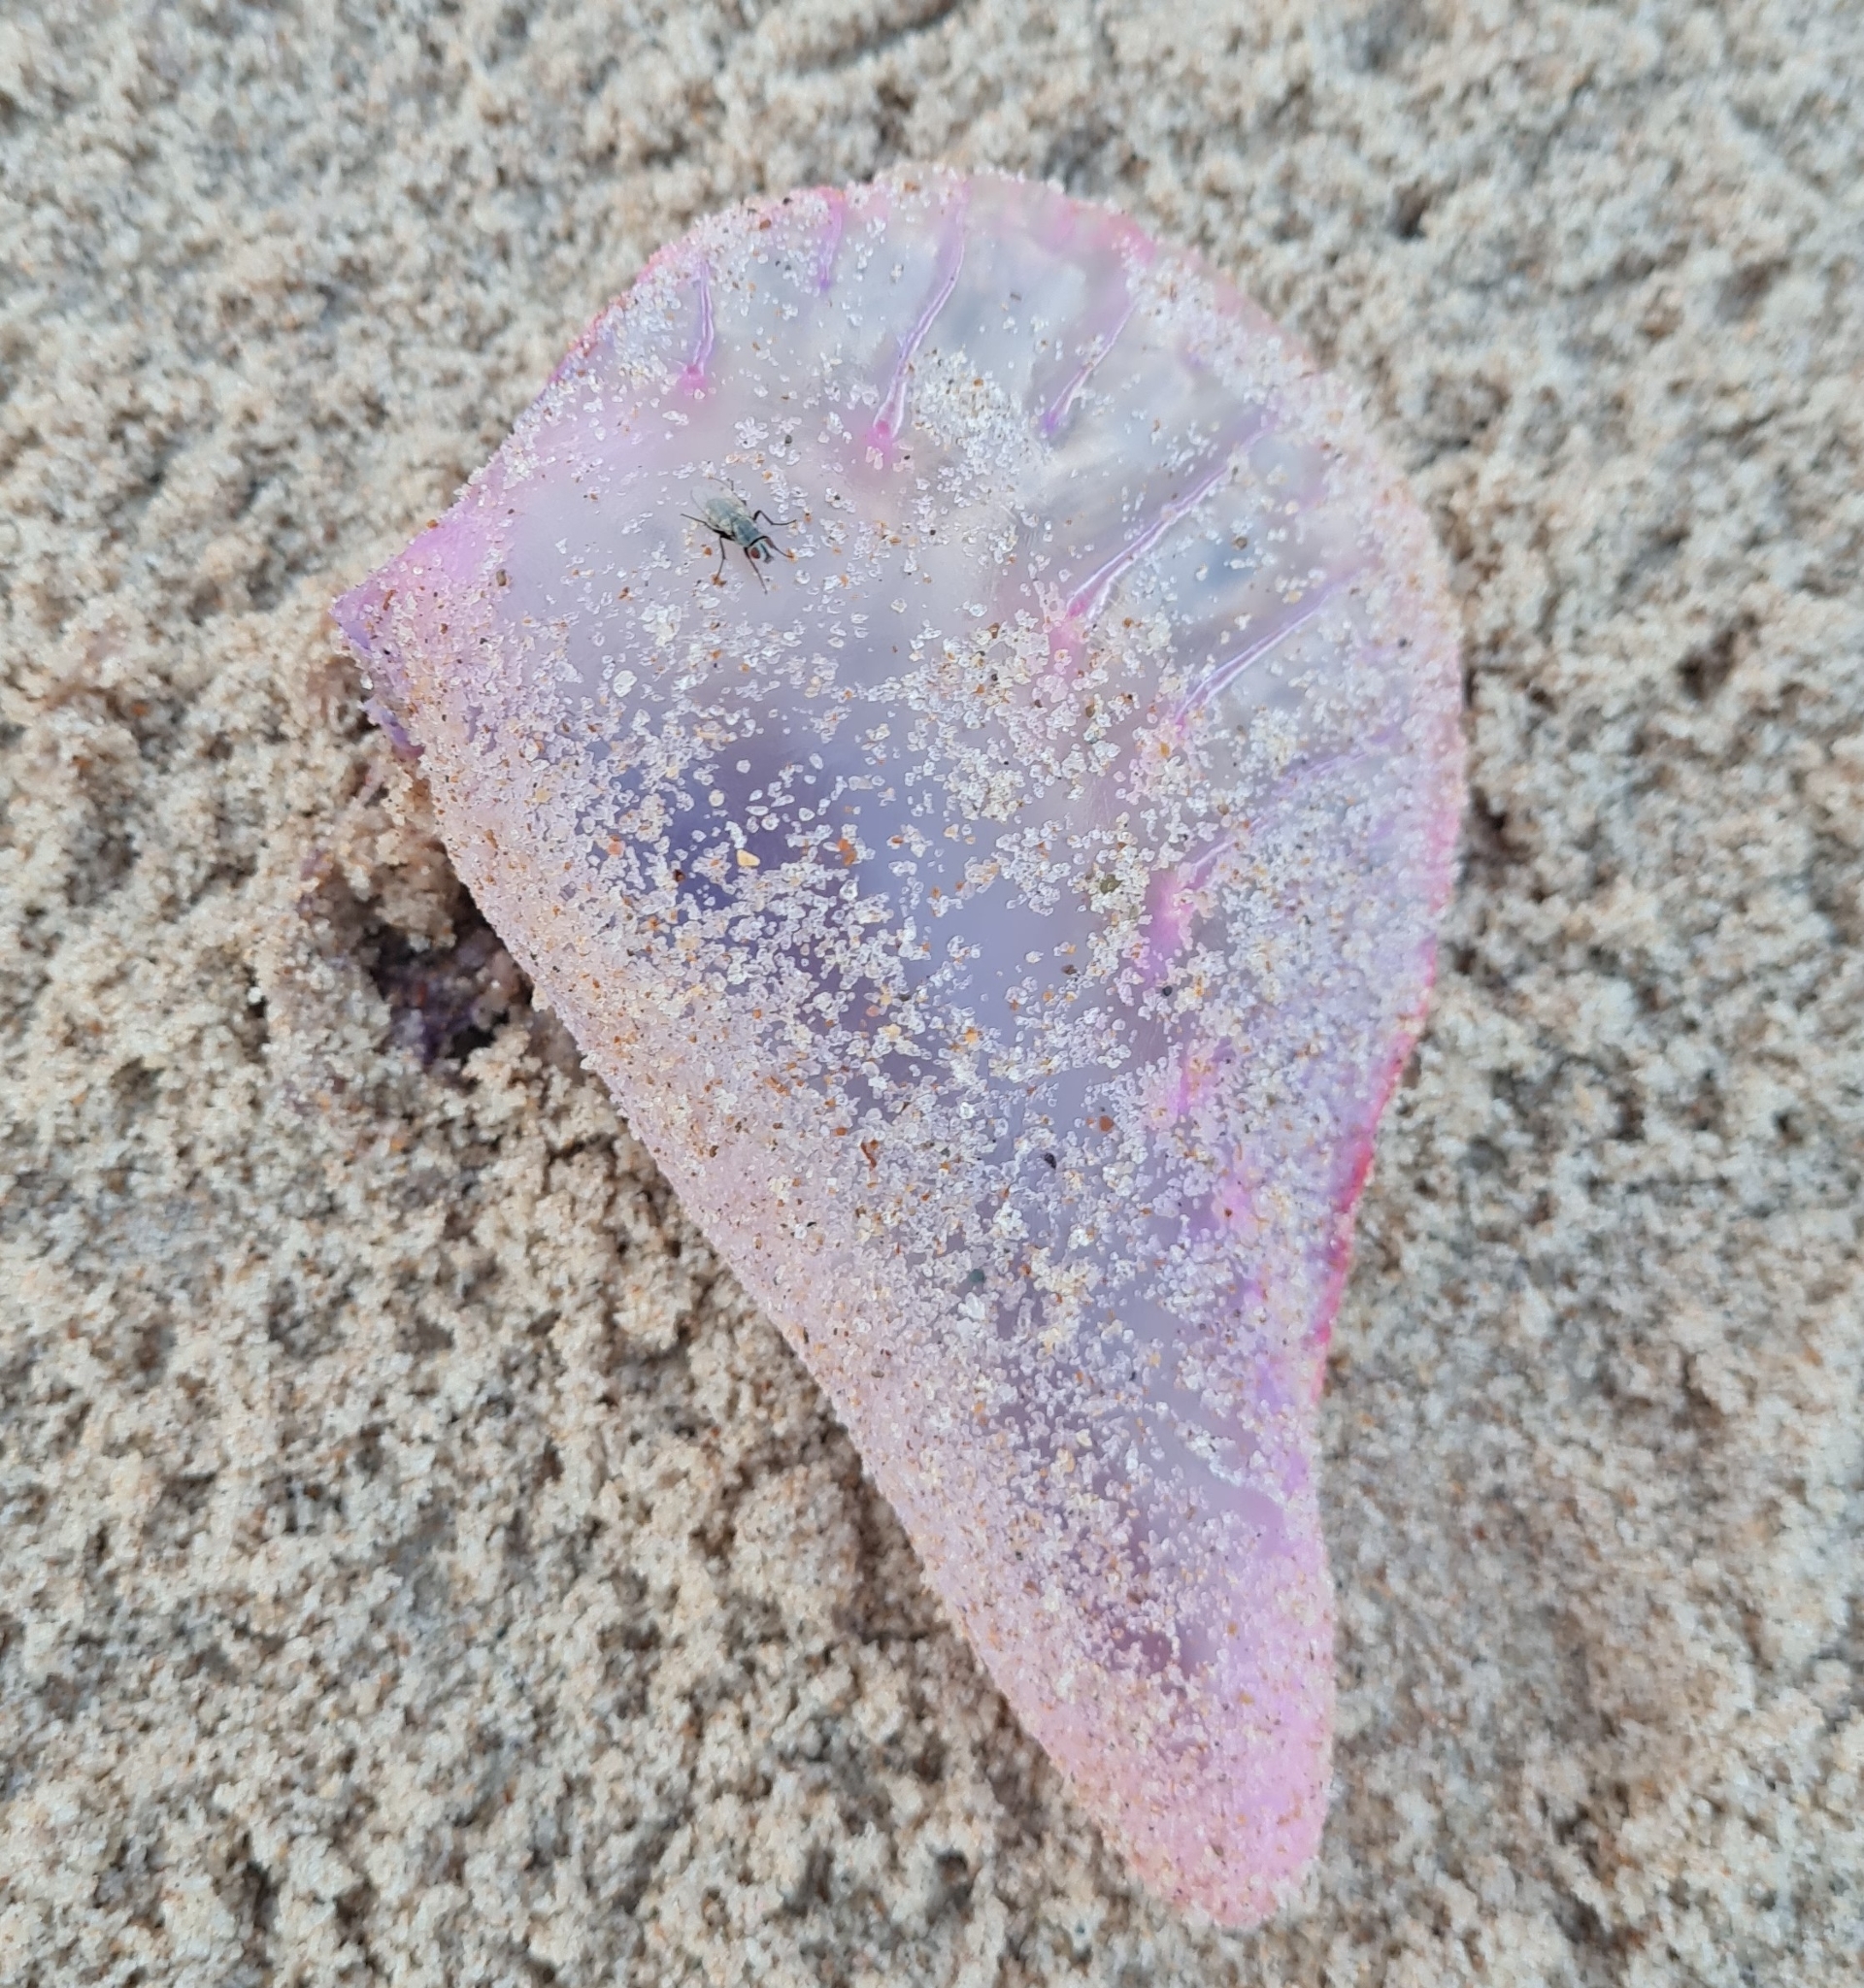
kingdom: Animalia
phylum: Cnidaria
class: Hydrozoa
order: Siphonophorae
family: Physaliidae
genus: Physalia
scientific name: Physalia physalis
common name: Portuguese man-of-war
